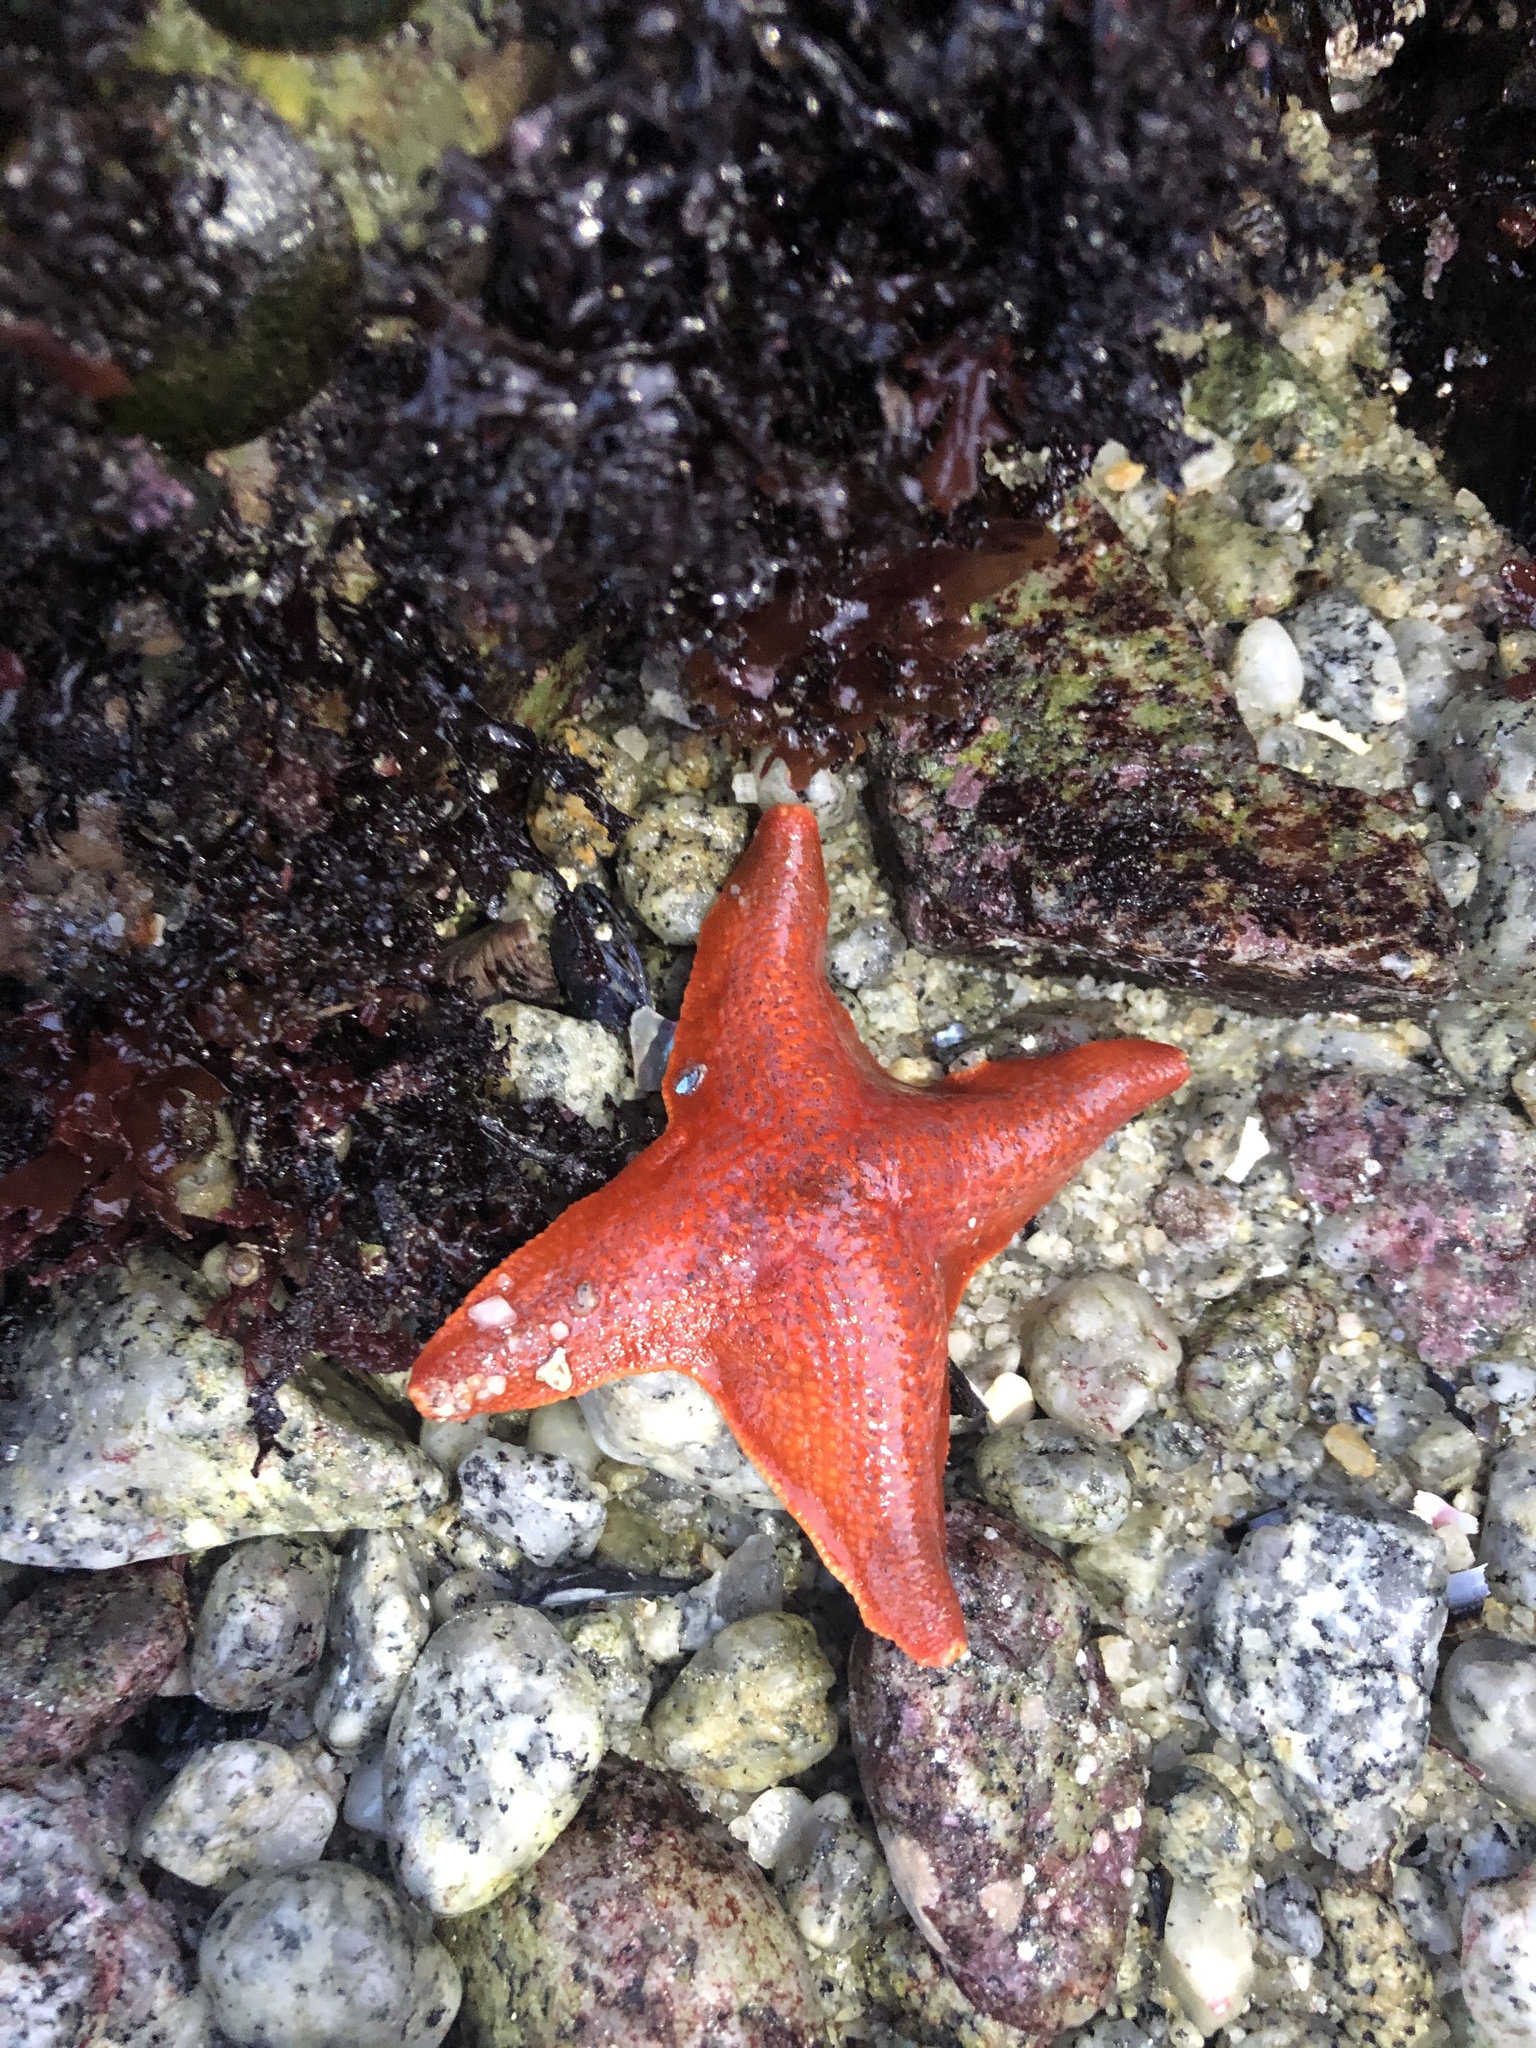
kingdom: Animalia
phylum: Echinodermata
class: Asteroidea
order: Valvatida
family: Asterinidae
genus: Patiria
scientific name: Patiria miniata
